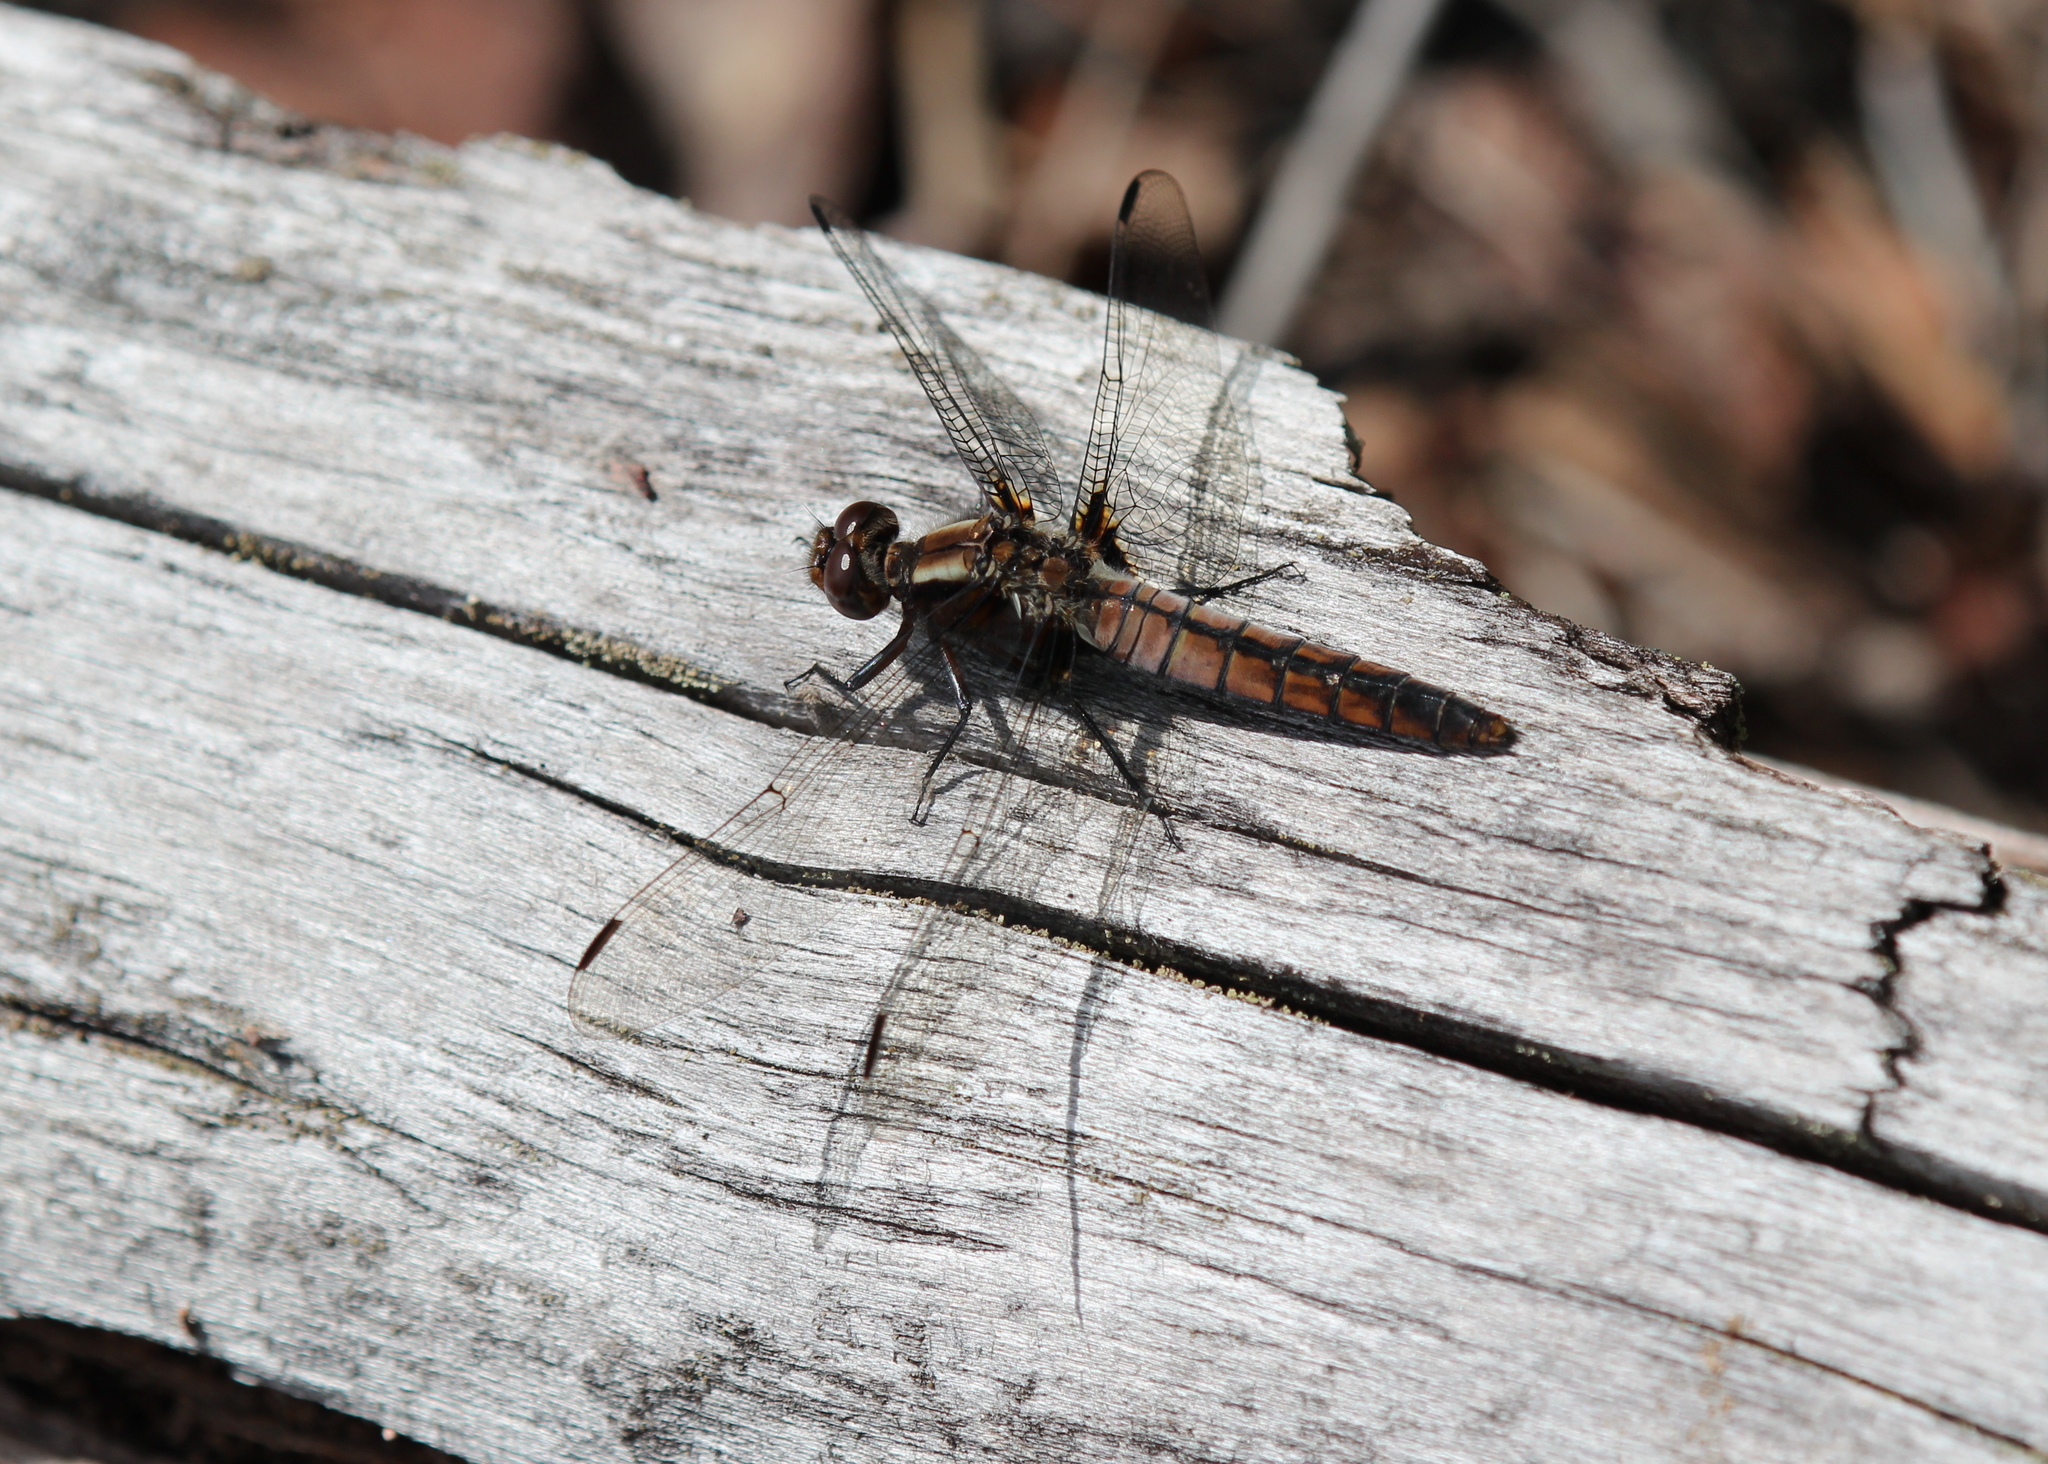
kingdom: Animalia
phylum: Arthropoda
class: Insecta
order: Odonata
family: Libellulidae
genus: Ladona
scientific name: Ladona julia
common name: Chalk-fronted corporal
